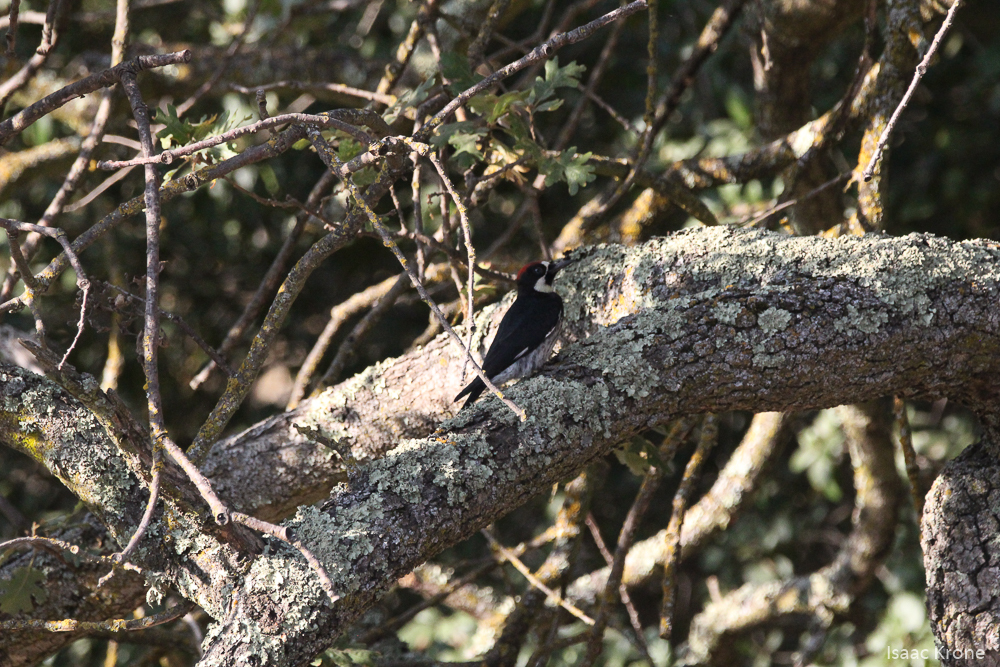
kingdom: Animalia
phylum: Chordata
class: Aves
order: Piciformes
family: Picidae
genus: Melanerpes
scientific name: Melanerpes formicivorus
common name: Acorn woodpecker
